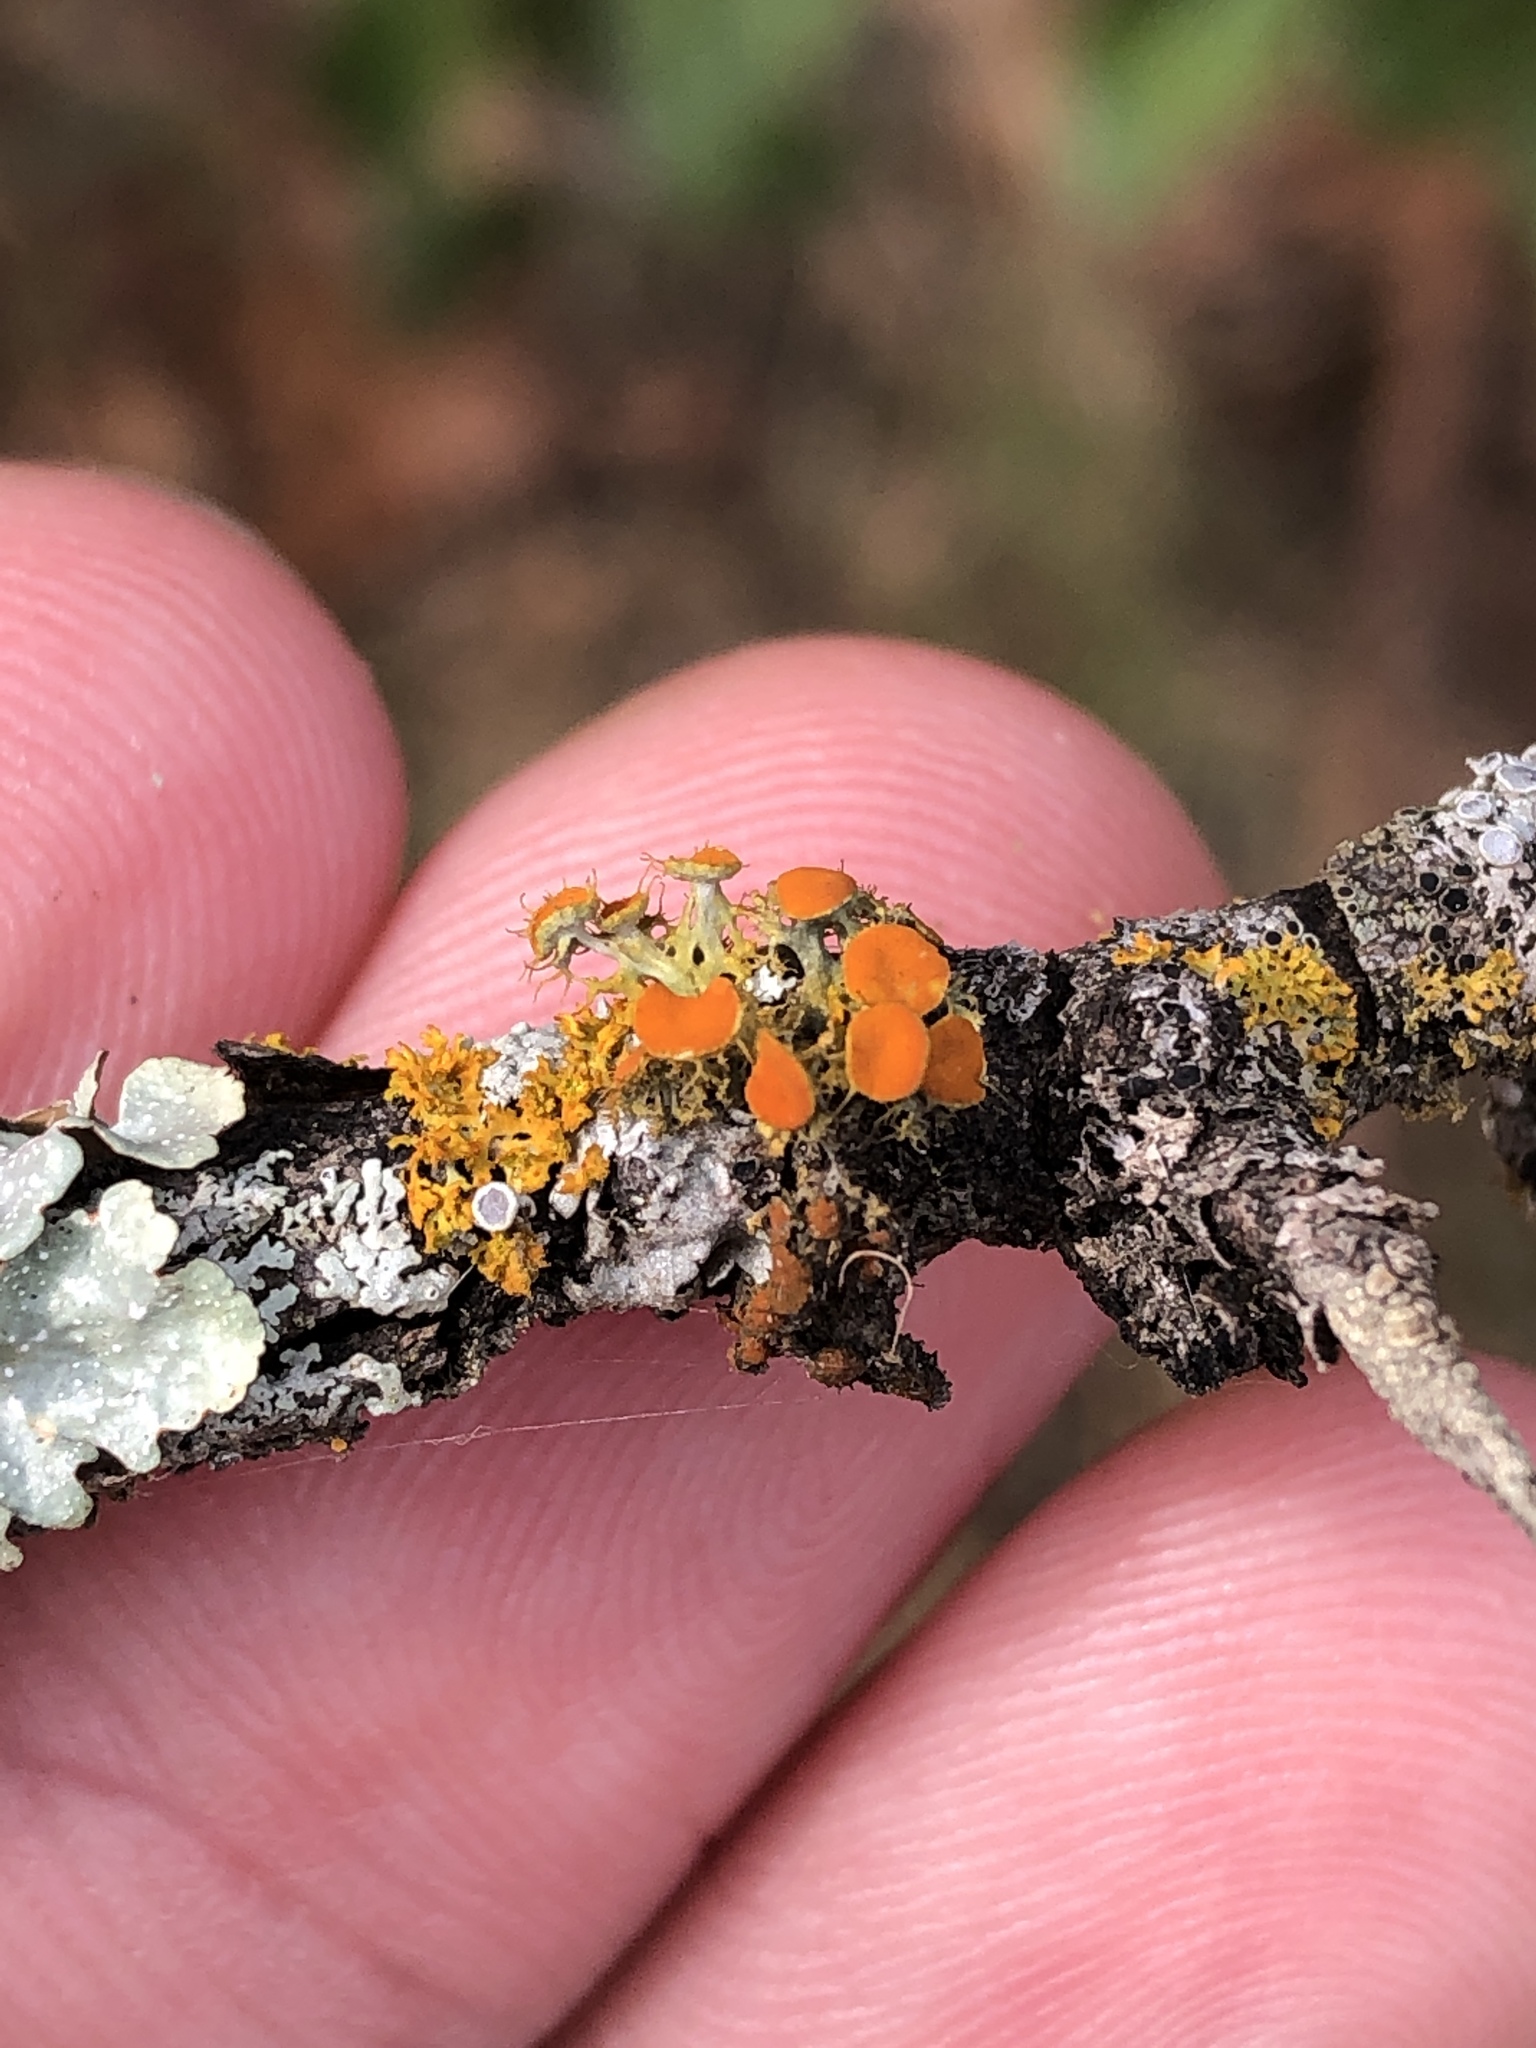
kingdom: Fungi
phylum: Ascomycota
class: Lecanoromycetes
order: Teloschistales
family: Teloschistaceae
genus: Niorma
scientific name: Niorma chrysophthalma
